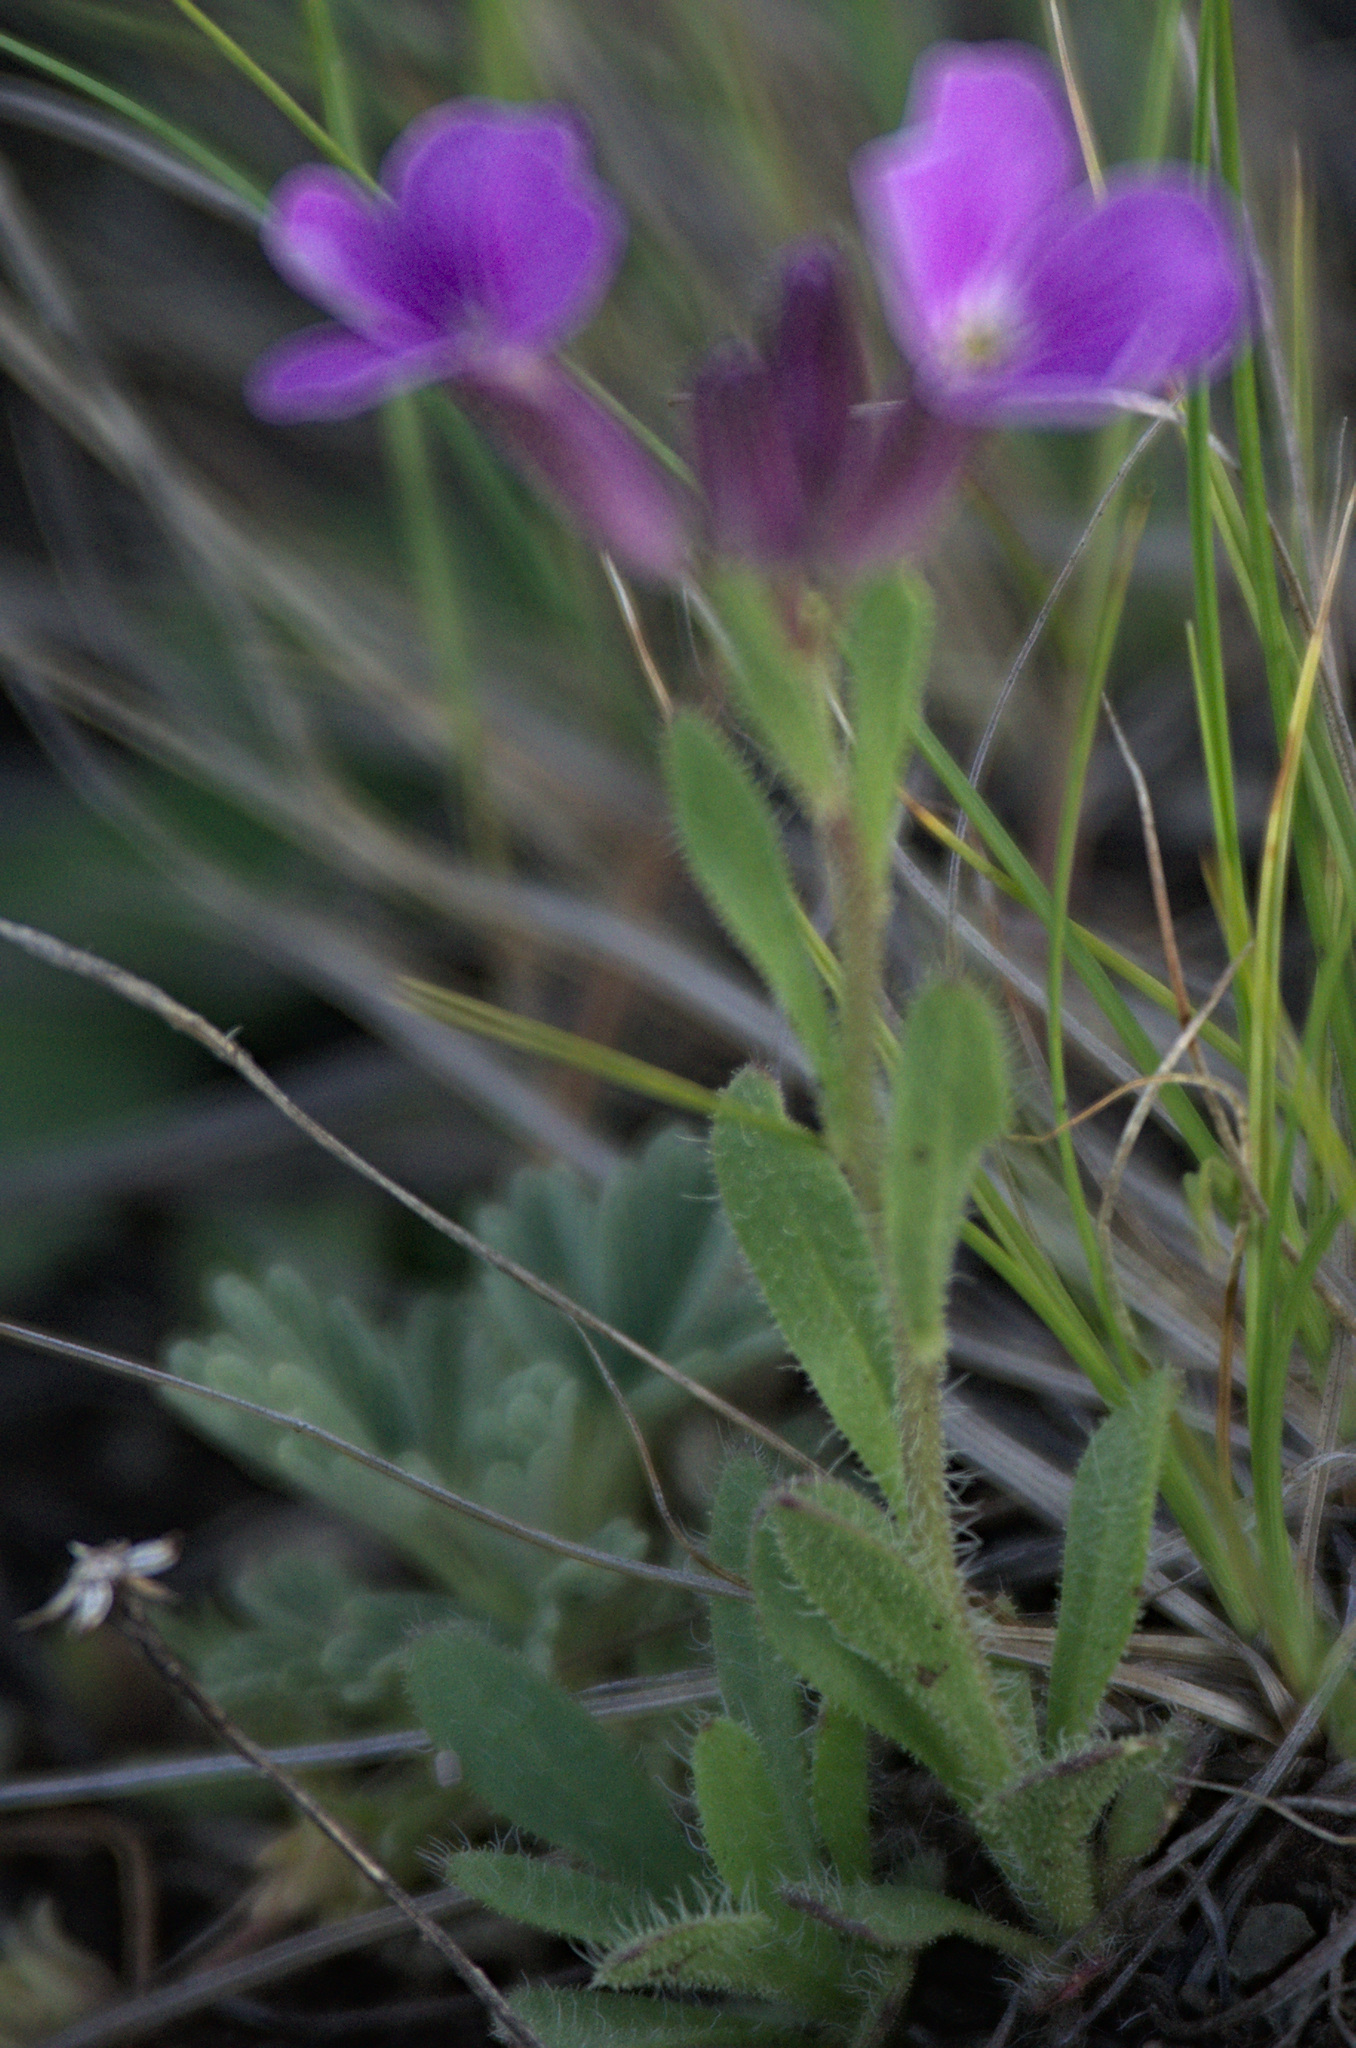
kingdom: Plantae
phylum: Tracheophyta
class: Magnoliopsida
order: Brassicales
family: Brassicaceae
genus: Clausia
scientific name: Clausia aprica
